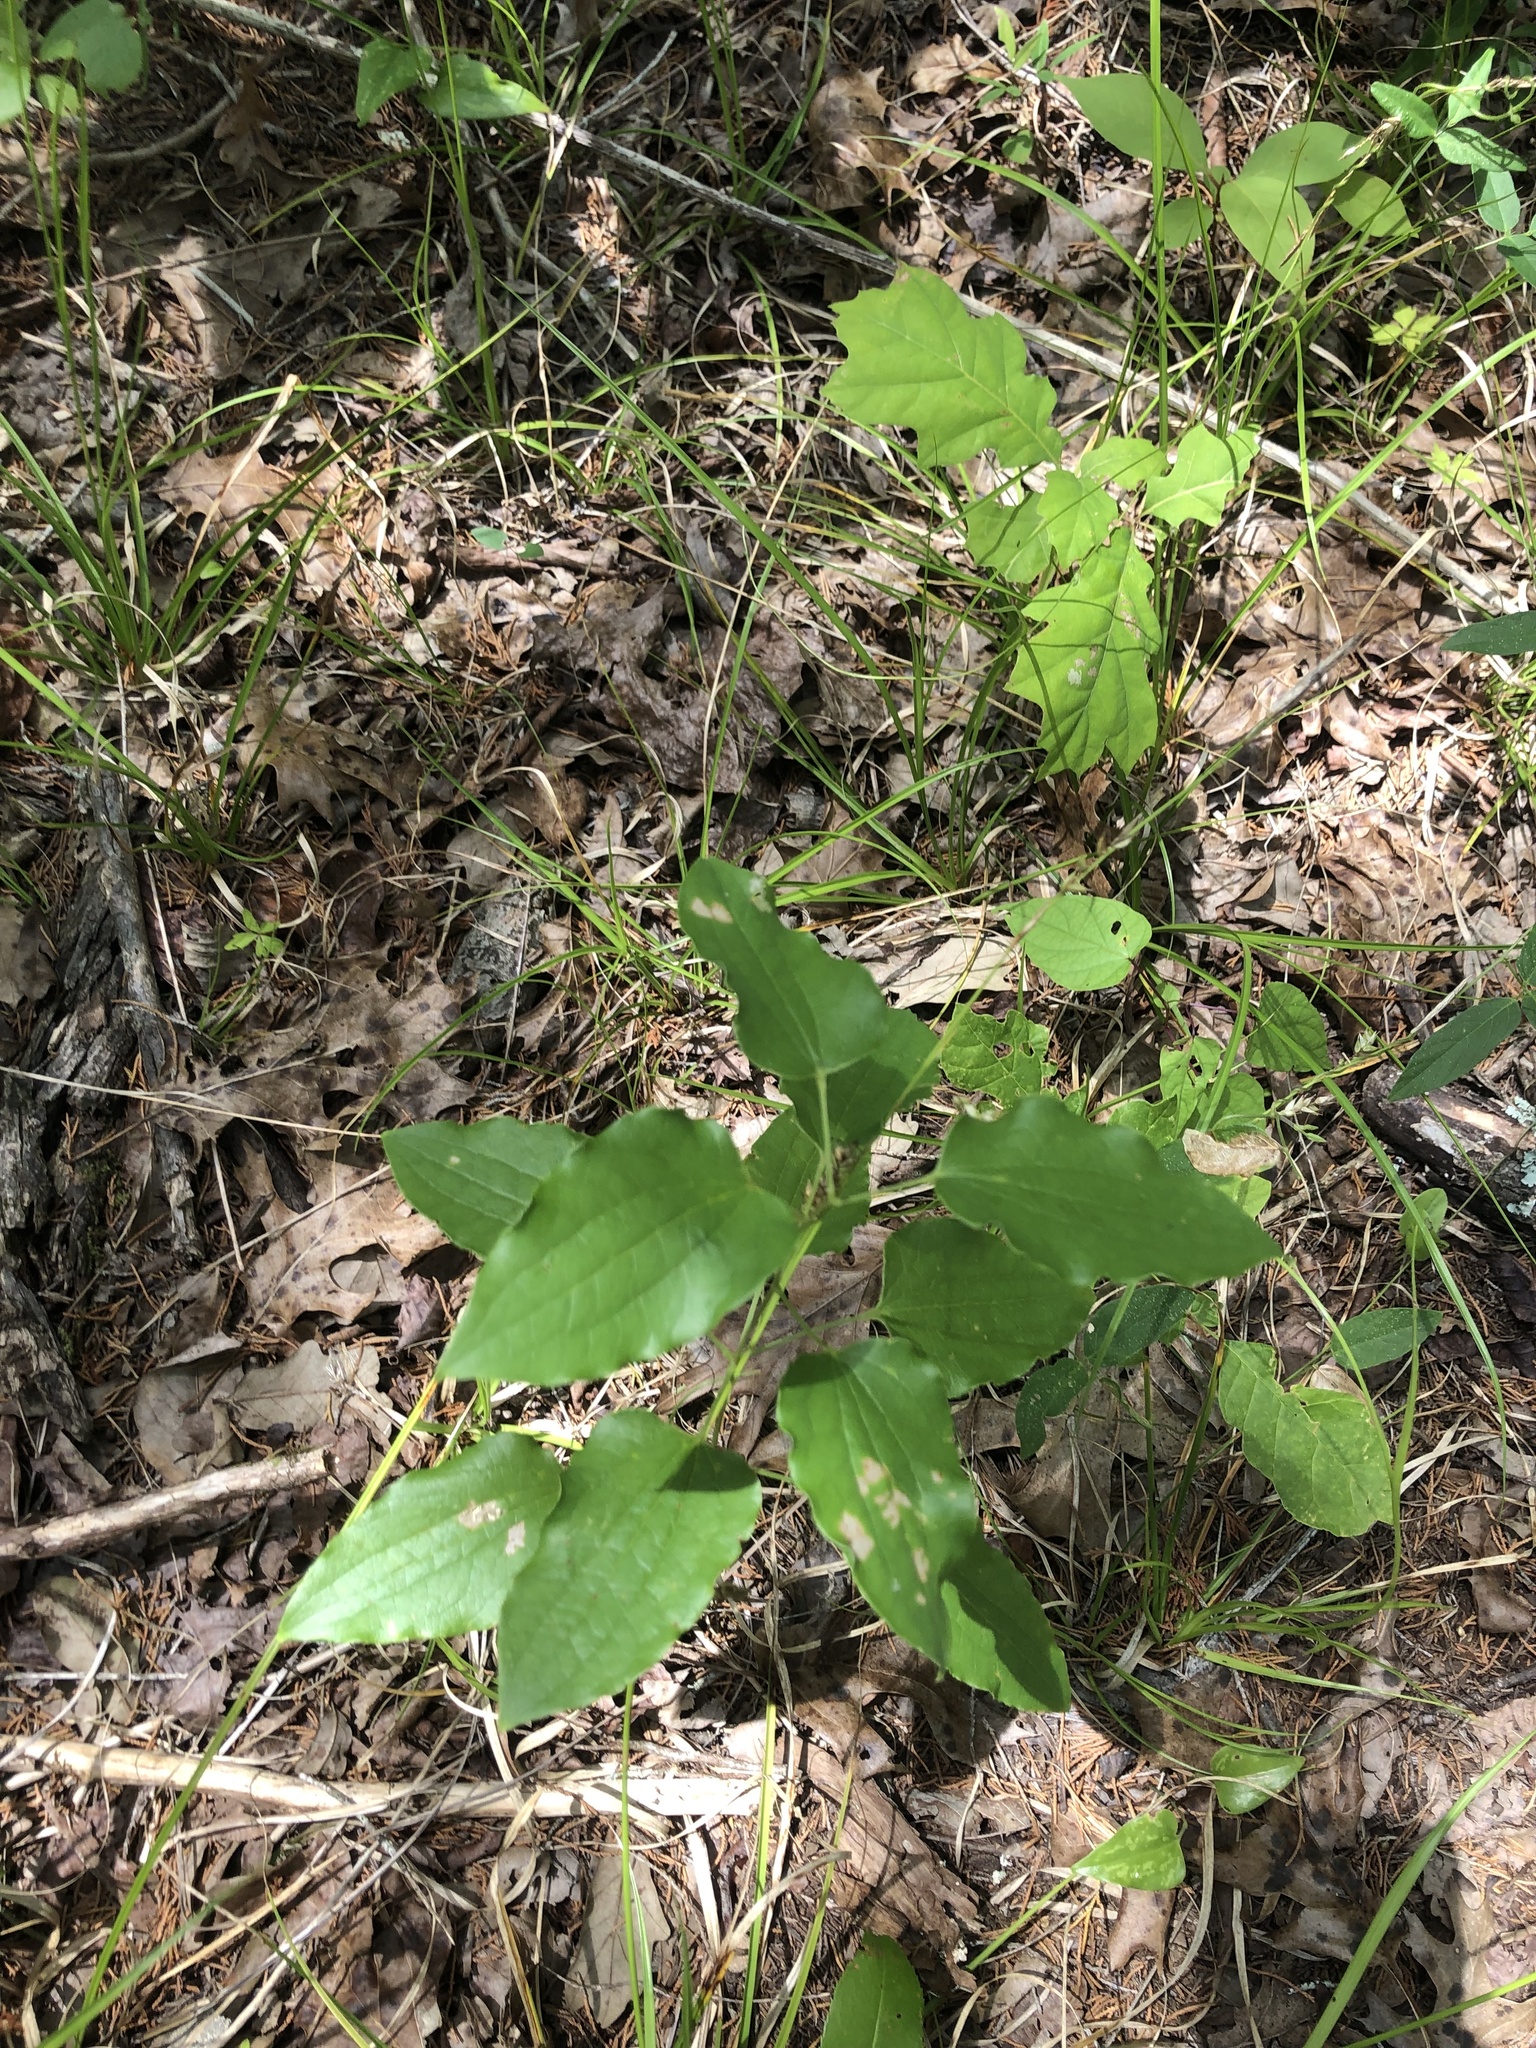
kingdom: Plantae
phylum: Tracheophyta
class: Liliopsida
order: Liliales
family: Smilacaceae
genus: Smilax
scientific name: Smilax lasioneura
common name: Blue ridge carrionflower
